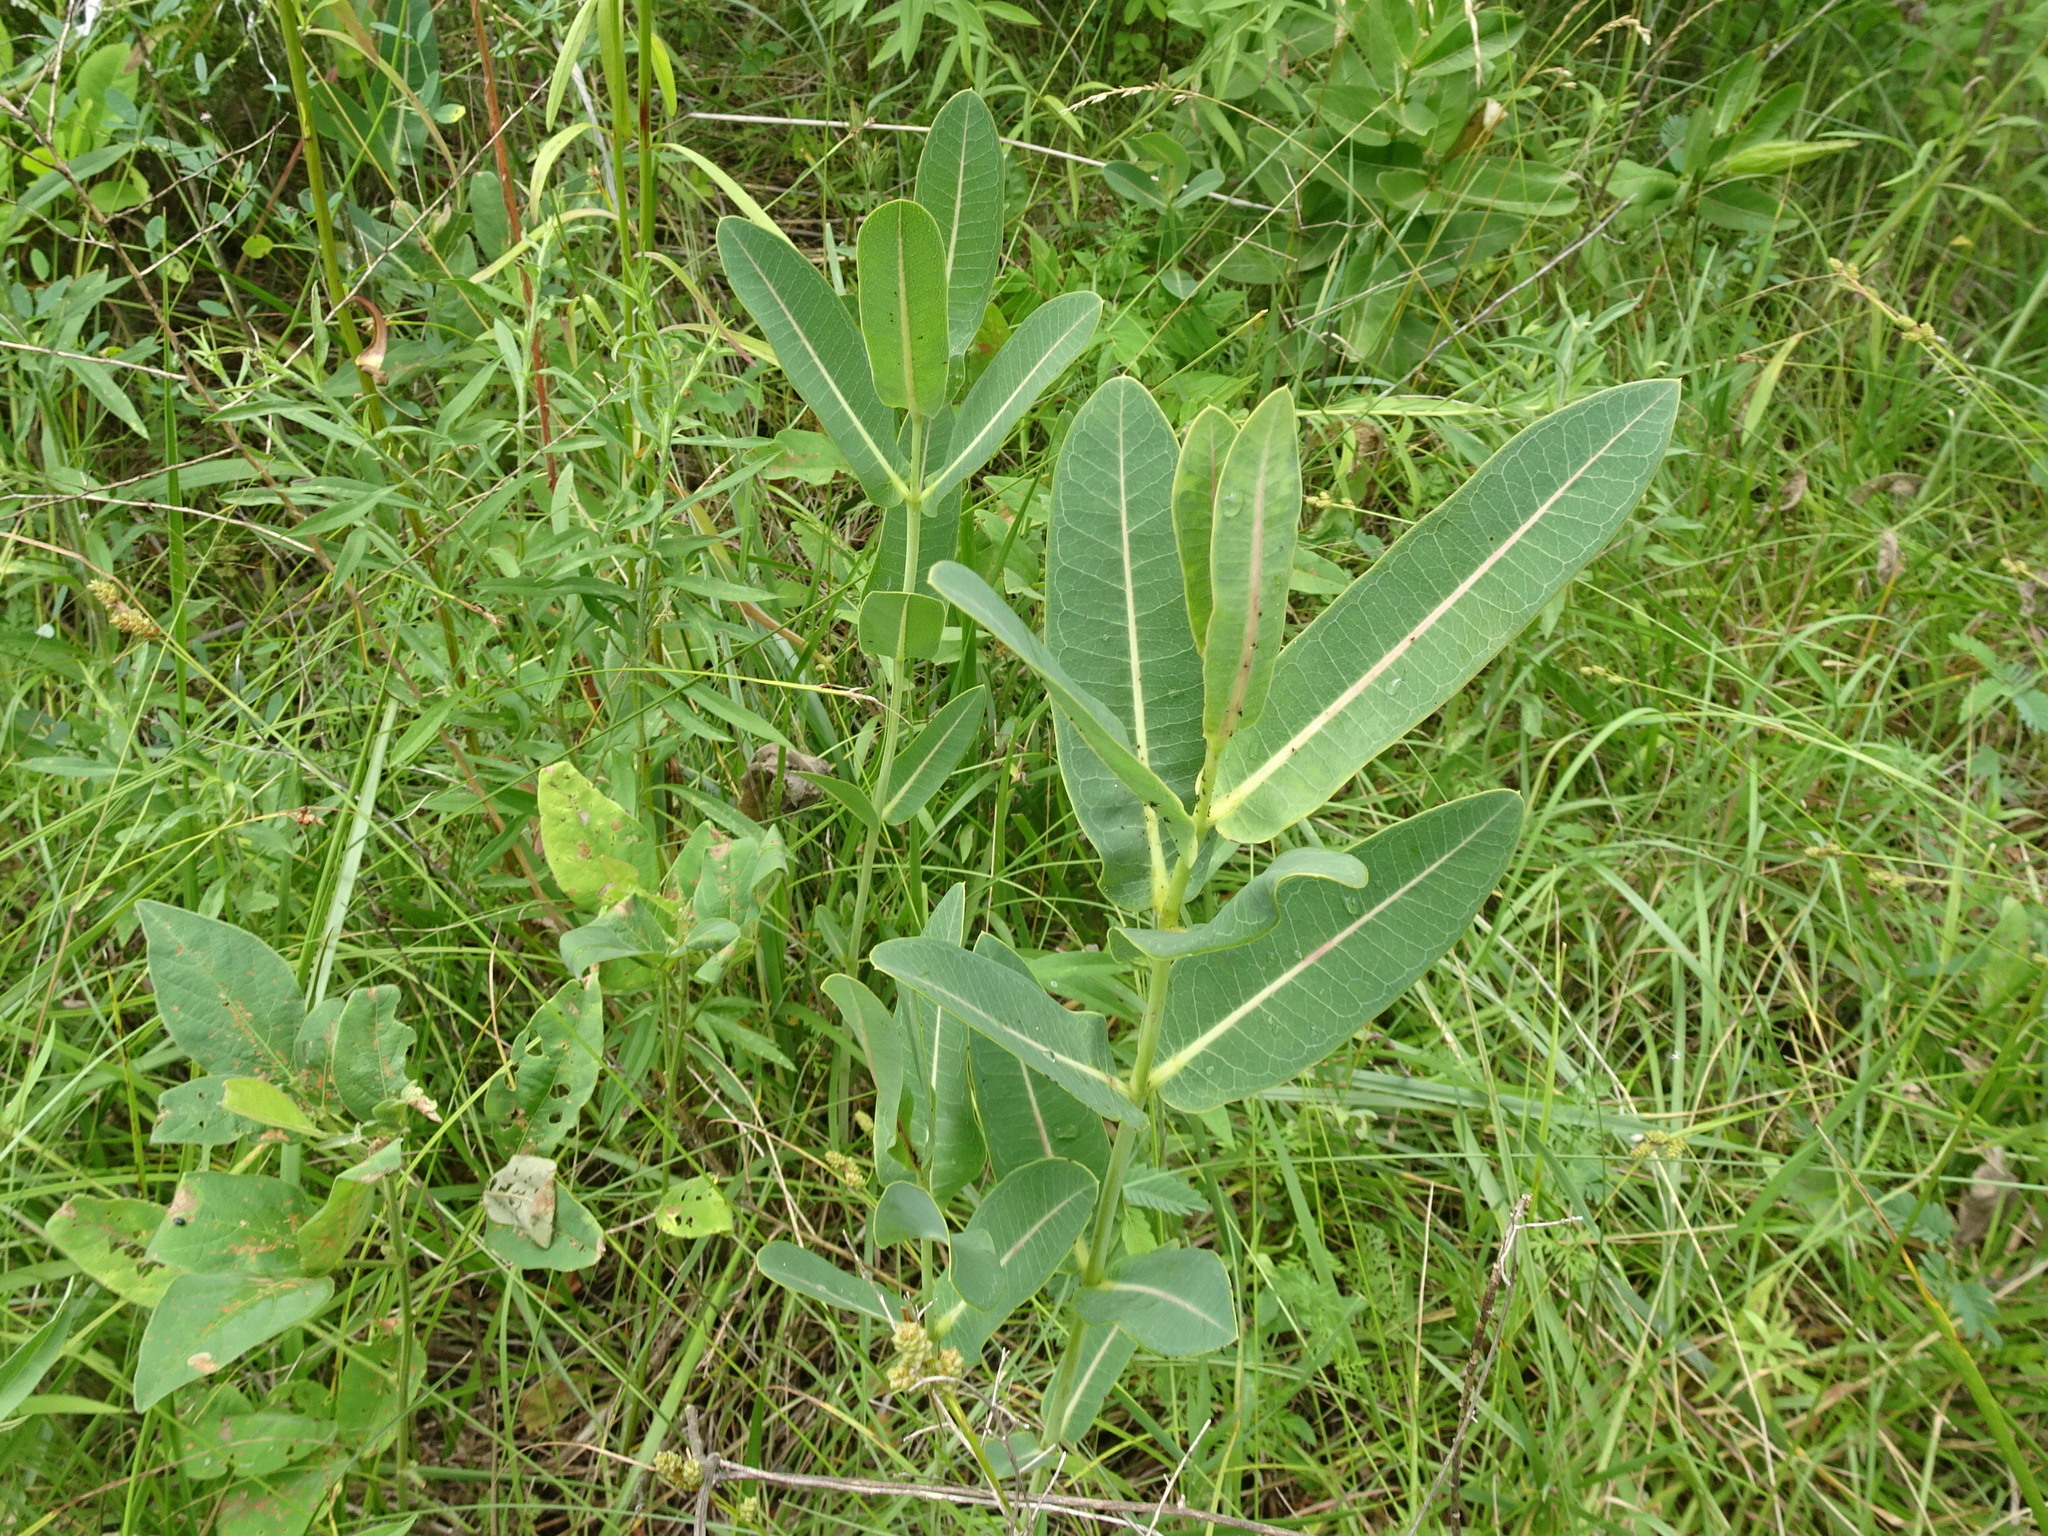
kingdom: Plantae
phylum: Tracheophyta
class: Magnoliopsida
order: Gentianales
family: Apocynaceae
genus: Asclepias
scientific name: Asclepias sullivantii
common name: Prairie milkweed
